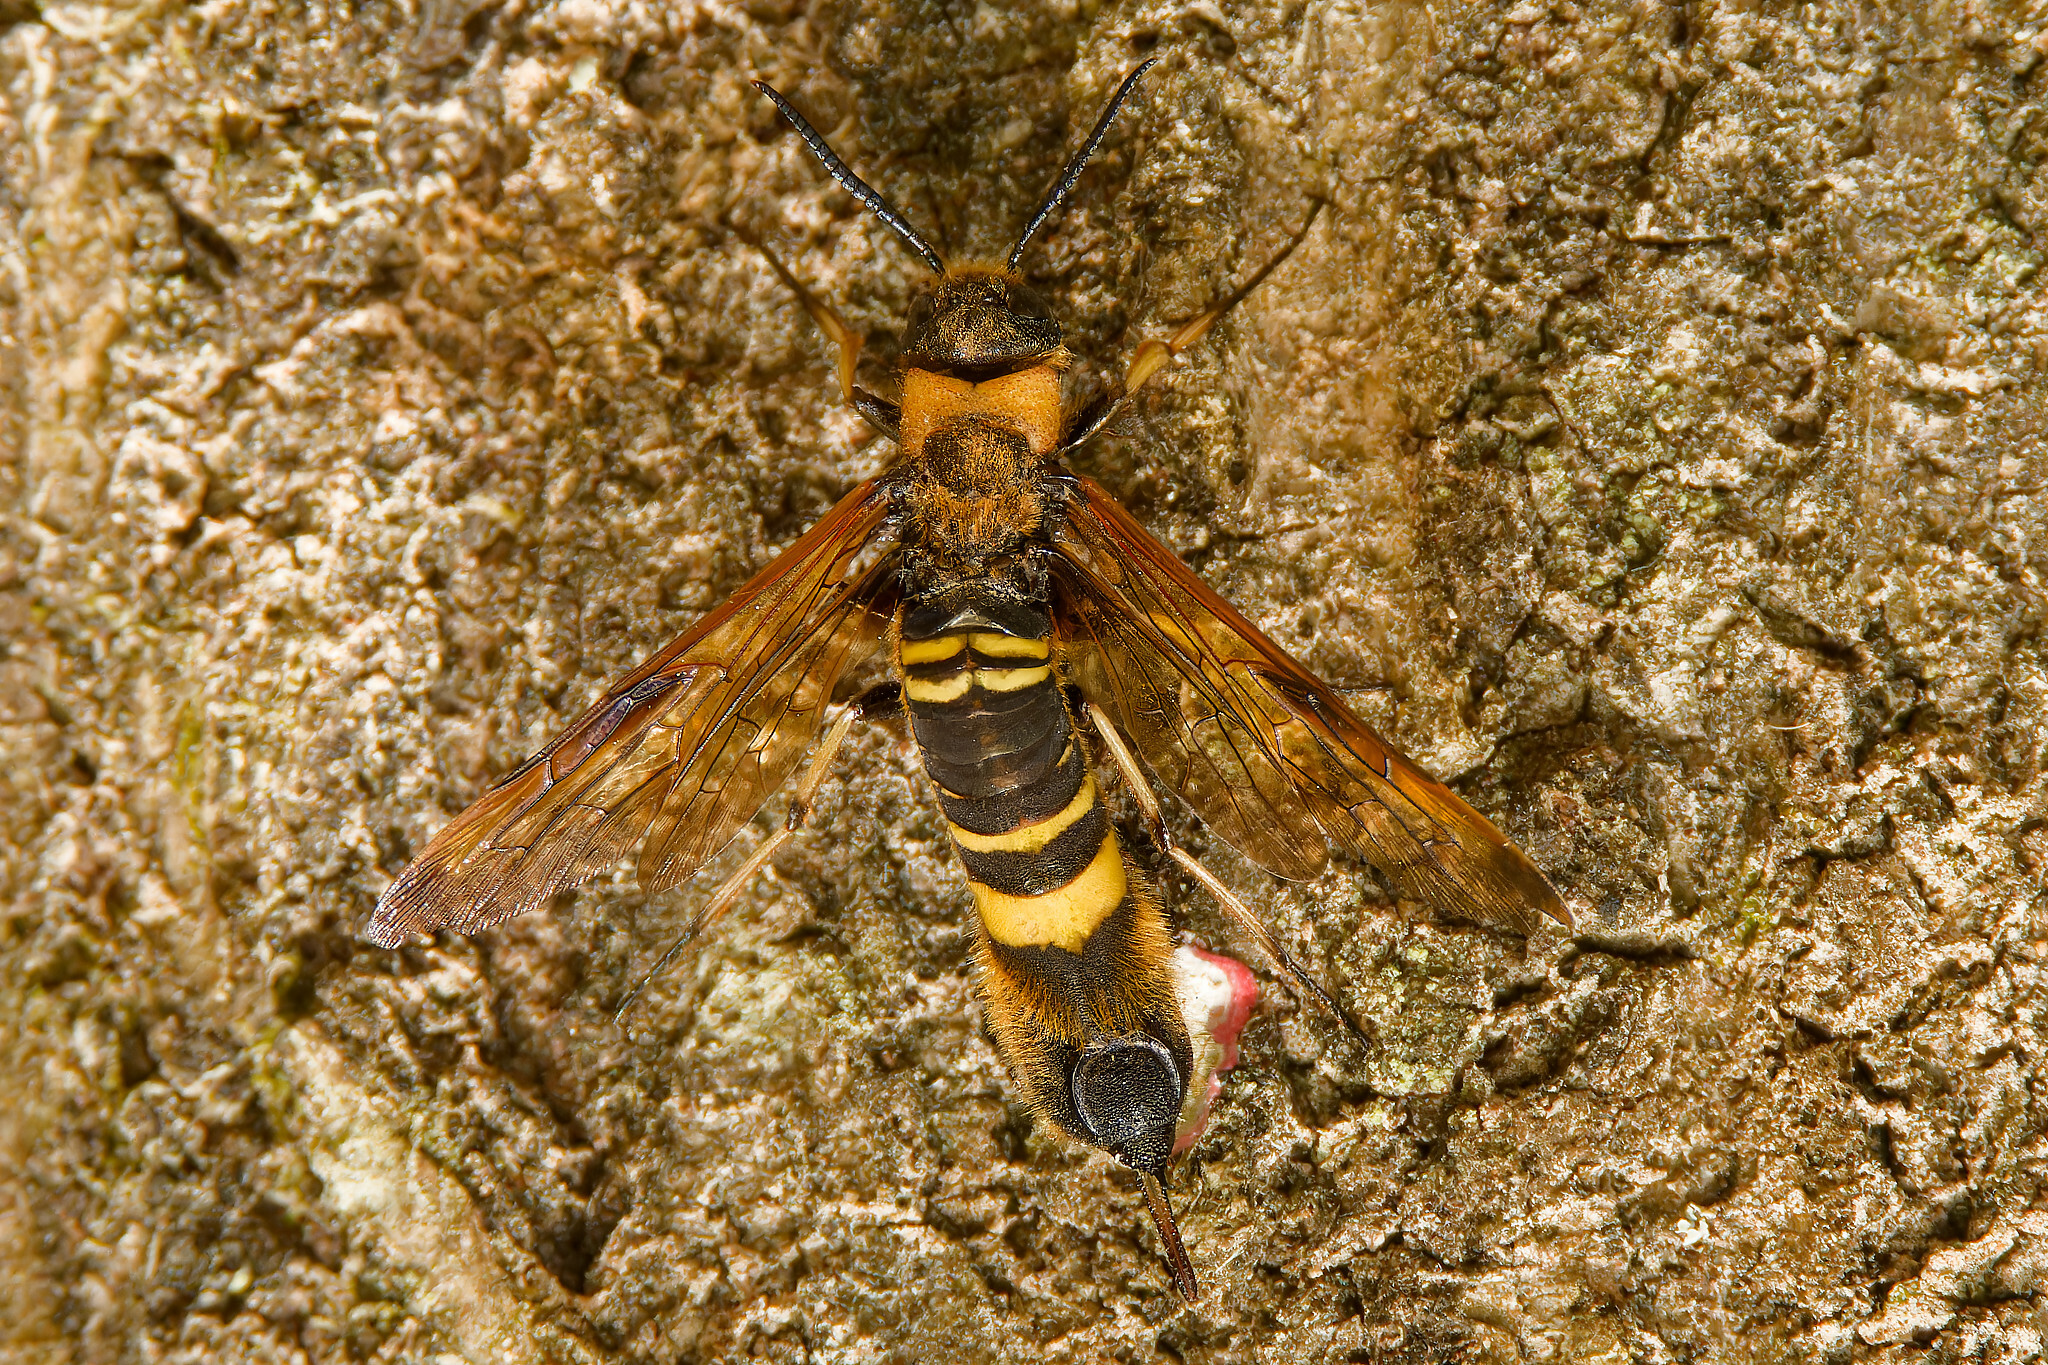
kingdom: Animalia
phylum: Arthropoda
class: Insecta
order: Hymenoptera
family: Siricidae
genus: Eriotremex
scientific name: Eriotremex formosanus
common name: Asian horntail
